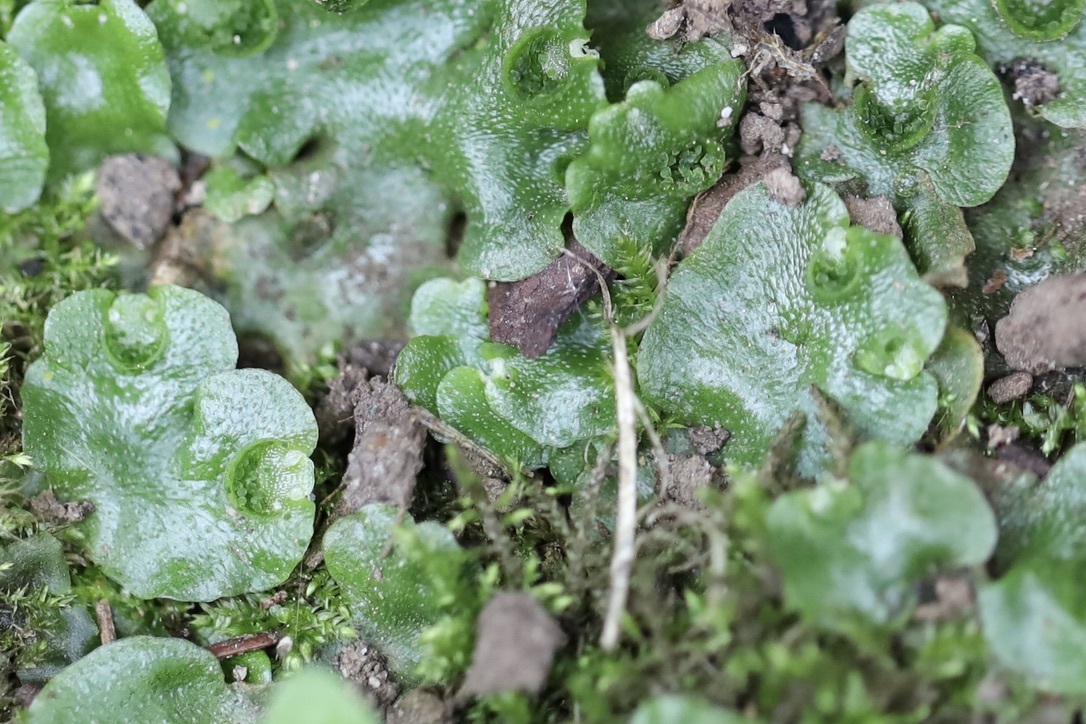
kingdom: Plantae
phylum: Marchantiophyta
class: Marchantiopsida
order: Lunulariales
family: Lunulariaceae
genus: Lunularia
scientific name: Lunularia cruciata
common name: Crescent-cup liverwort
